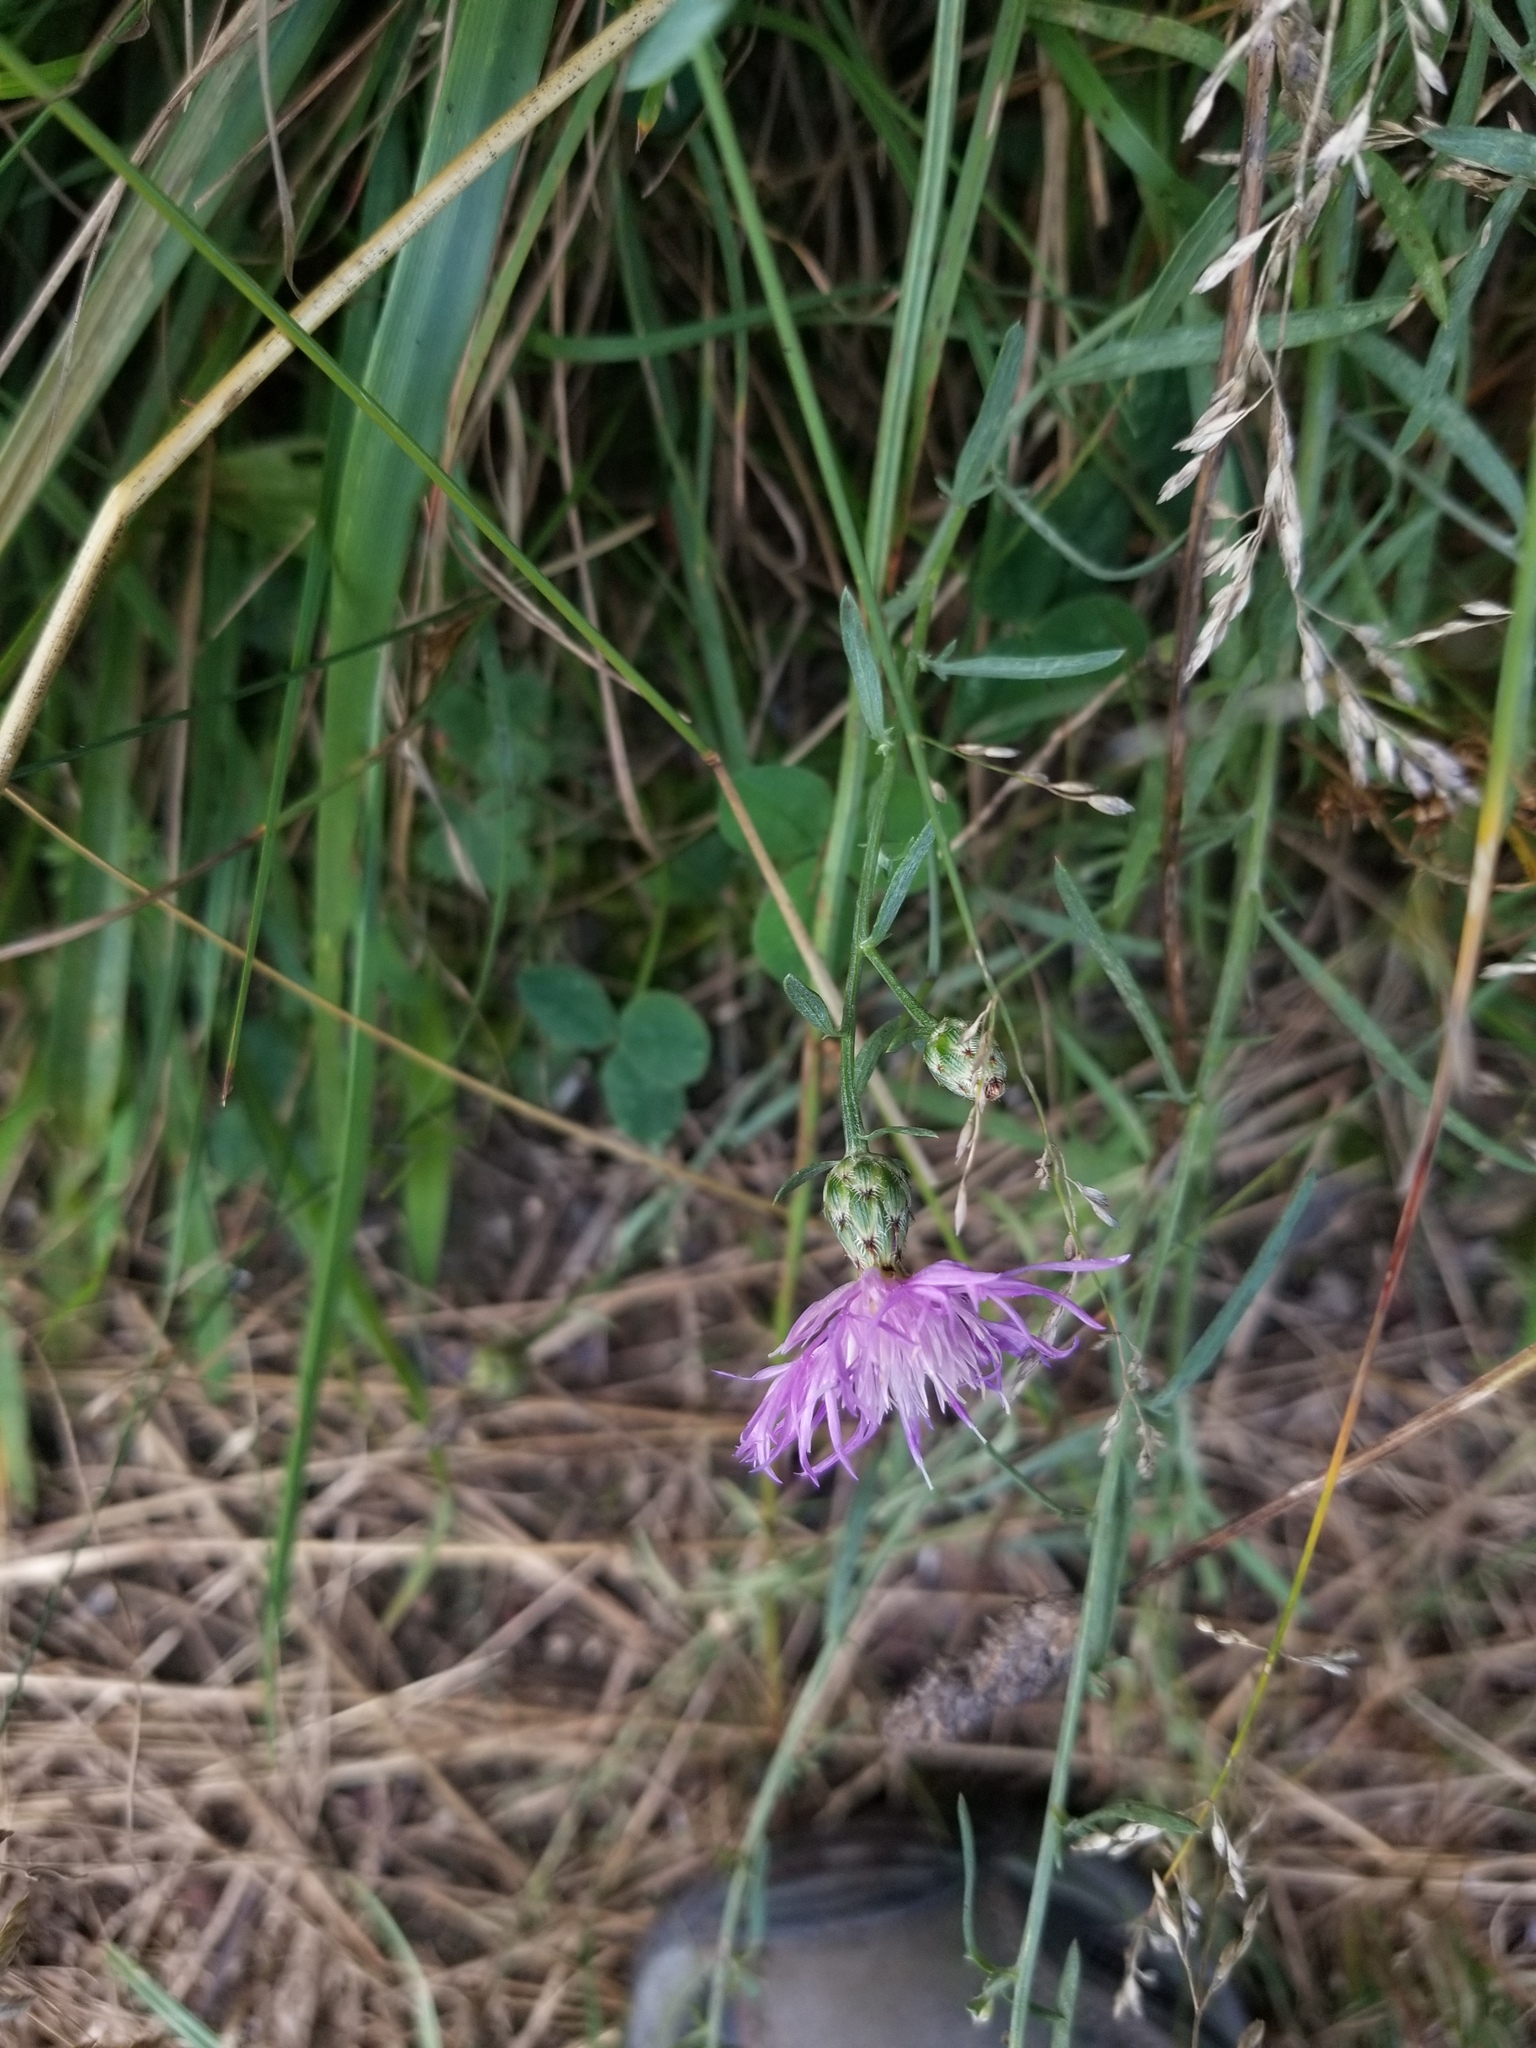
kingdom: Plantae
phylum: Tracheophyta
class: Magnoliopsida
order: Asterales
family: Asteraceae
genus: Centaurea
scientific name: Centaurea stoebe
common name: Spotted knapweed
